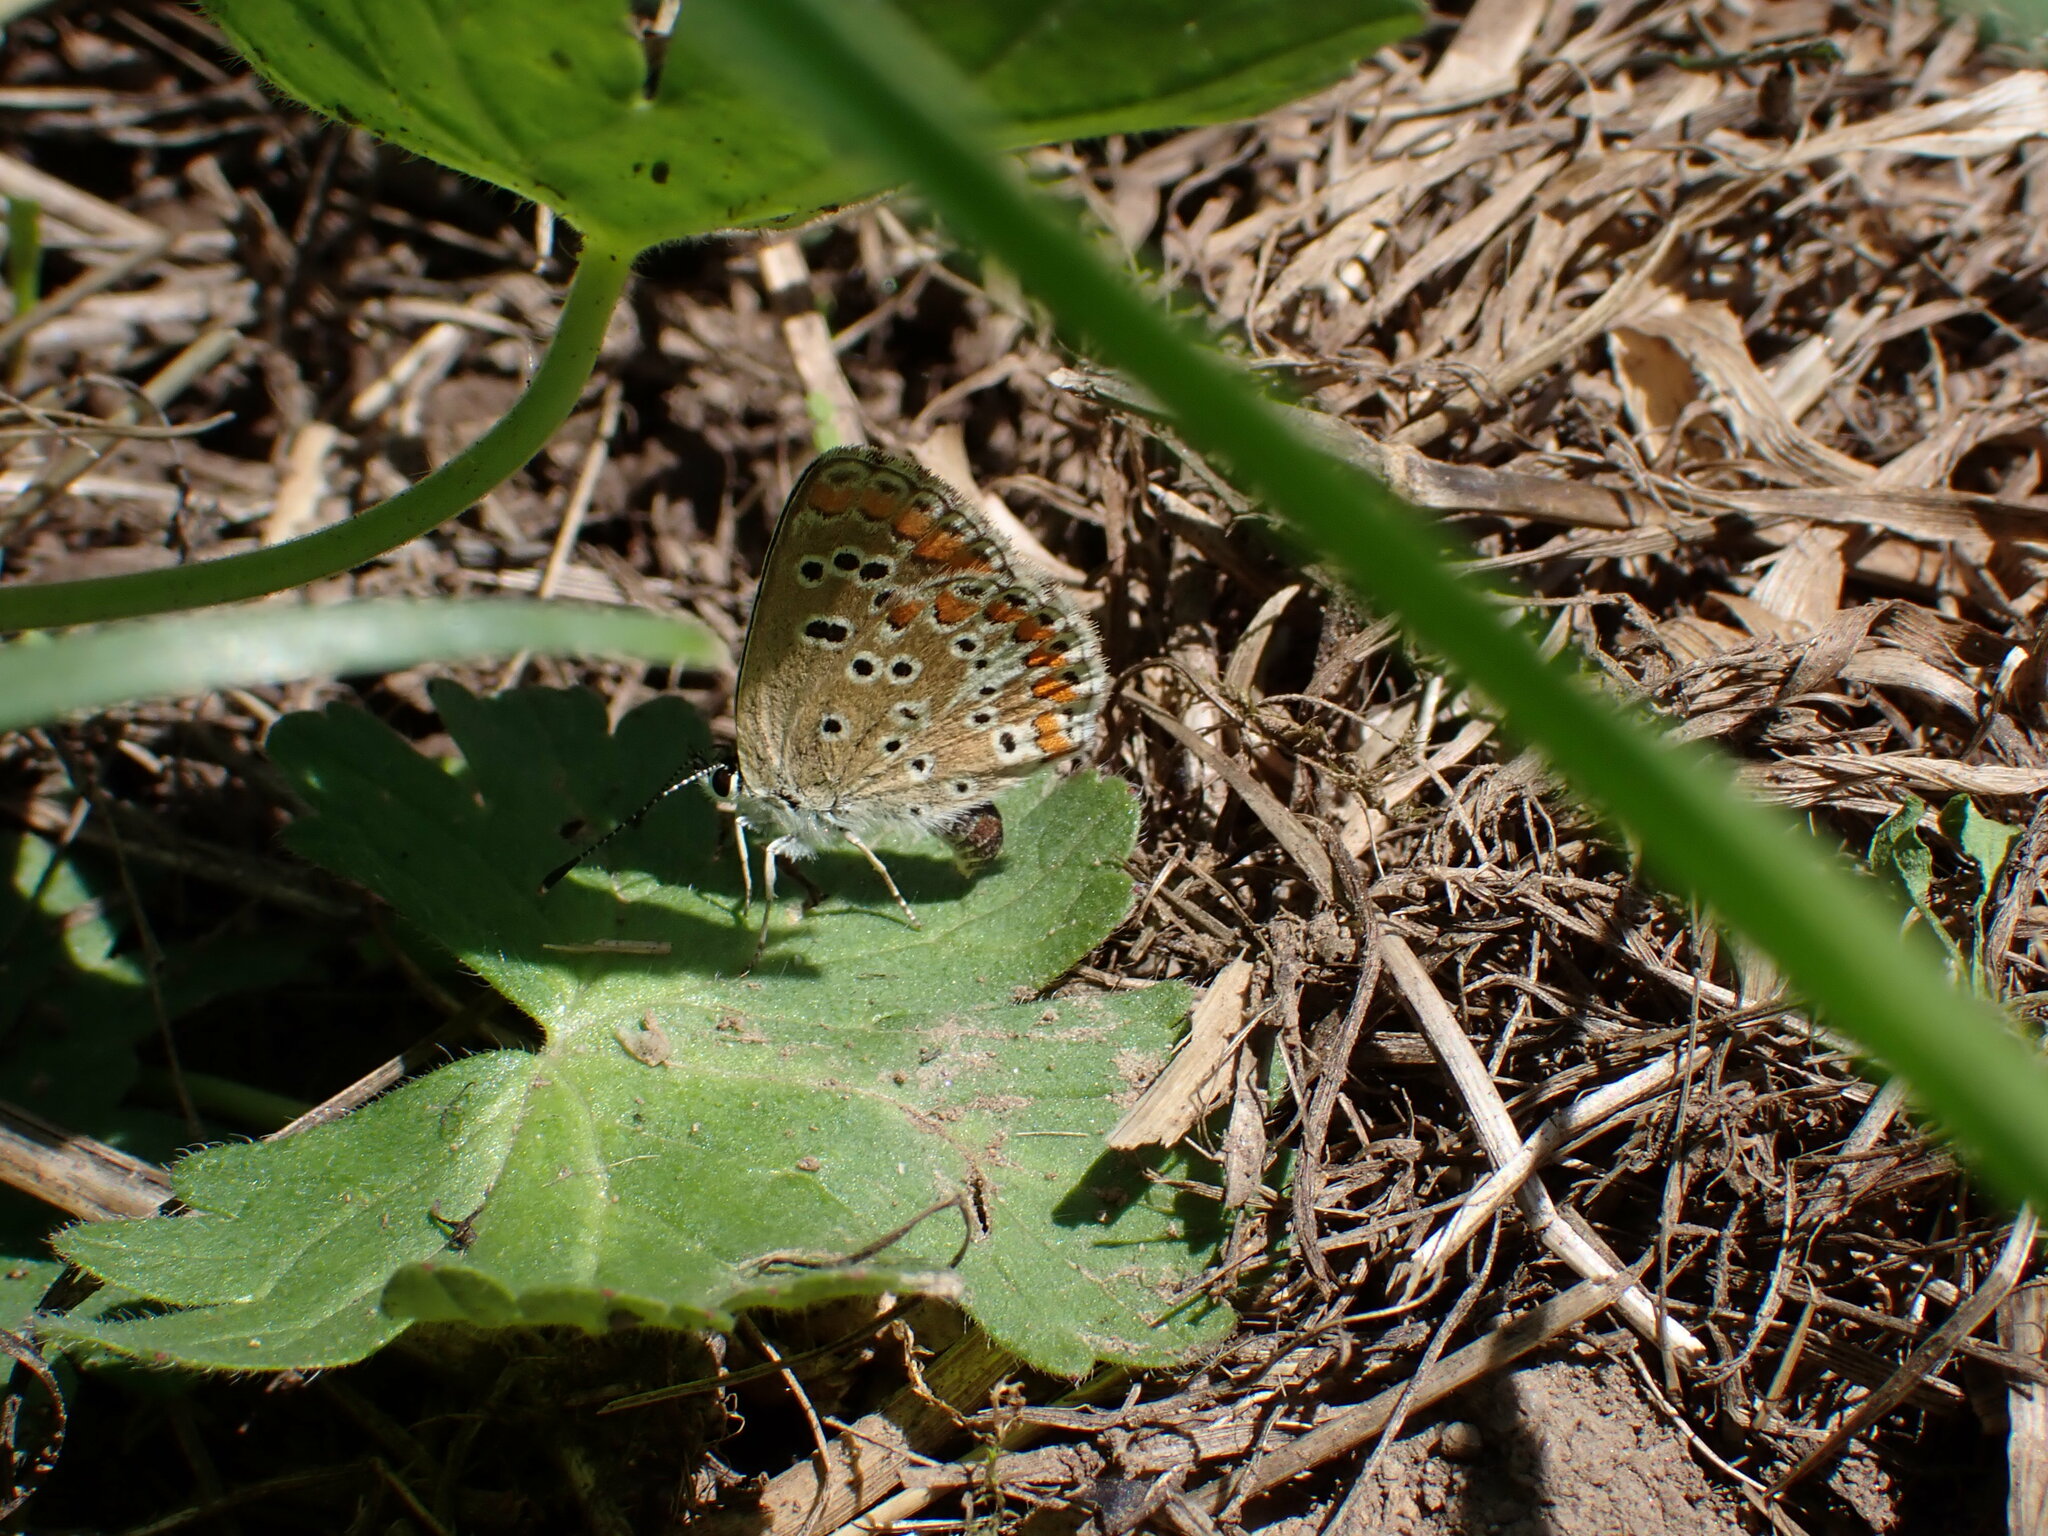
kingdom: Animalia
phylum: Arthropoda
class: Insecta
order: Lepidoptera
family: Lycaenidae
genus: Aricia
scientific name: Aricia agestis
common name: Brown argus
